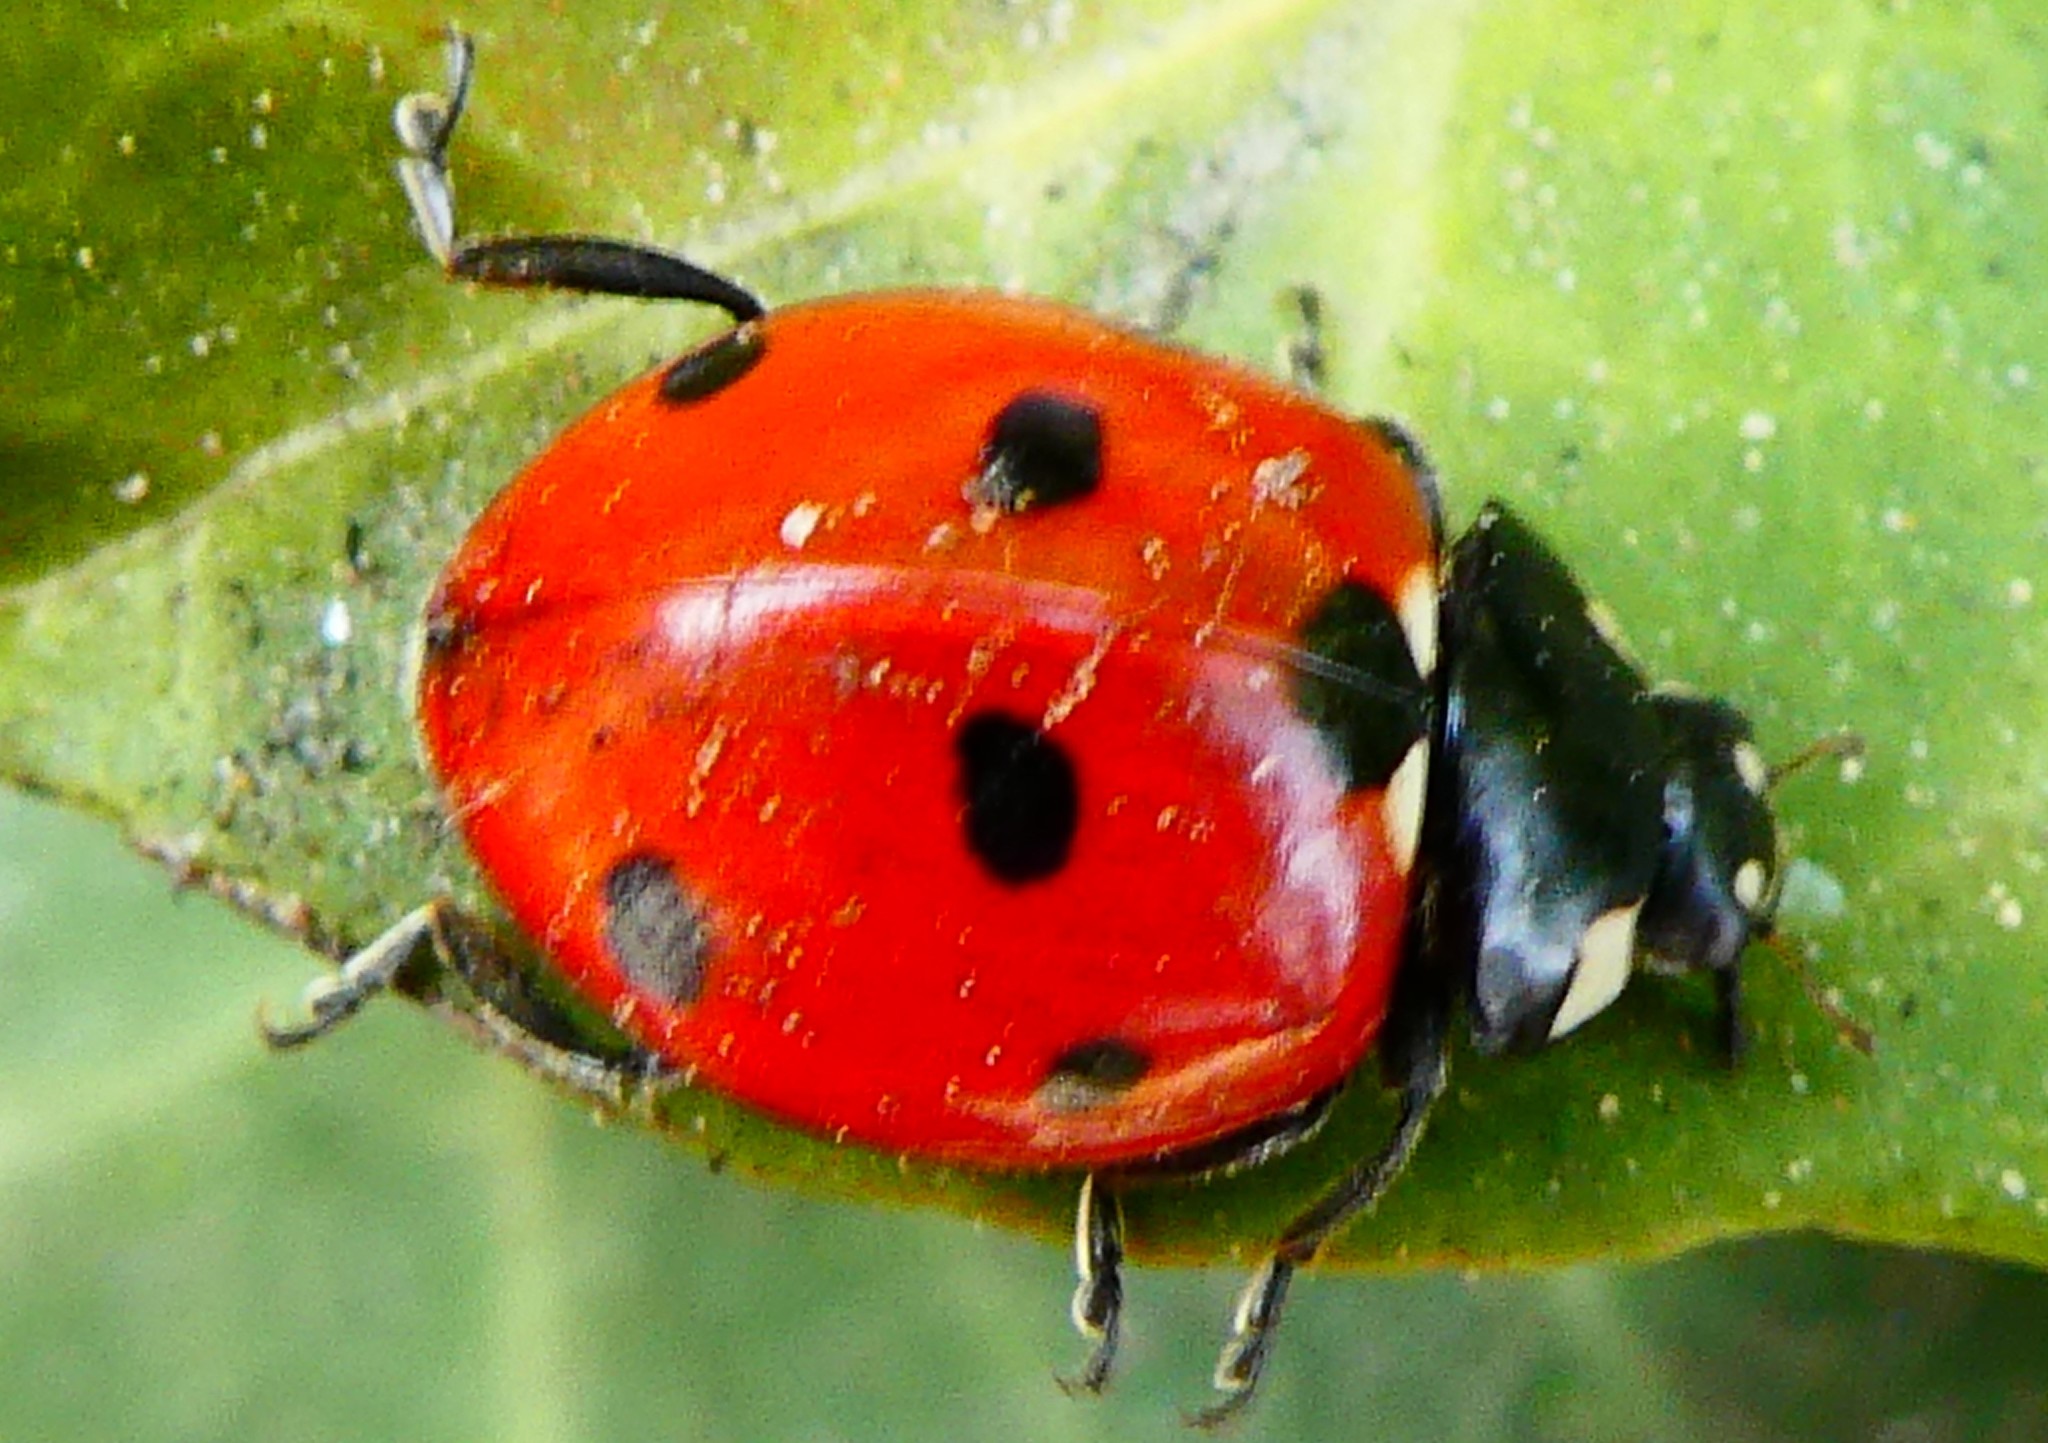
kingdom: Animalia
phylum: Arthropoda
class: Insecta
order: Coleoptera
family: Coccinellidae
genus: Coccinella
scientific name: Coccinella septempunctata
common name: Sevenspotted lady beetle
